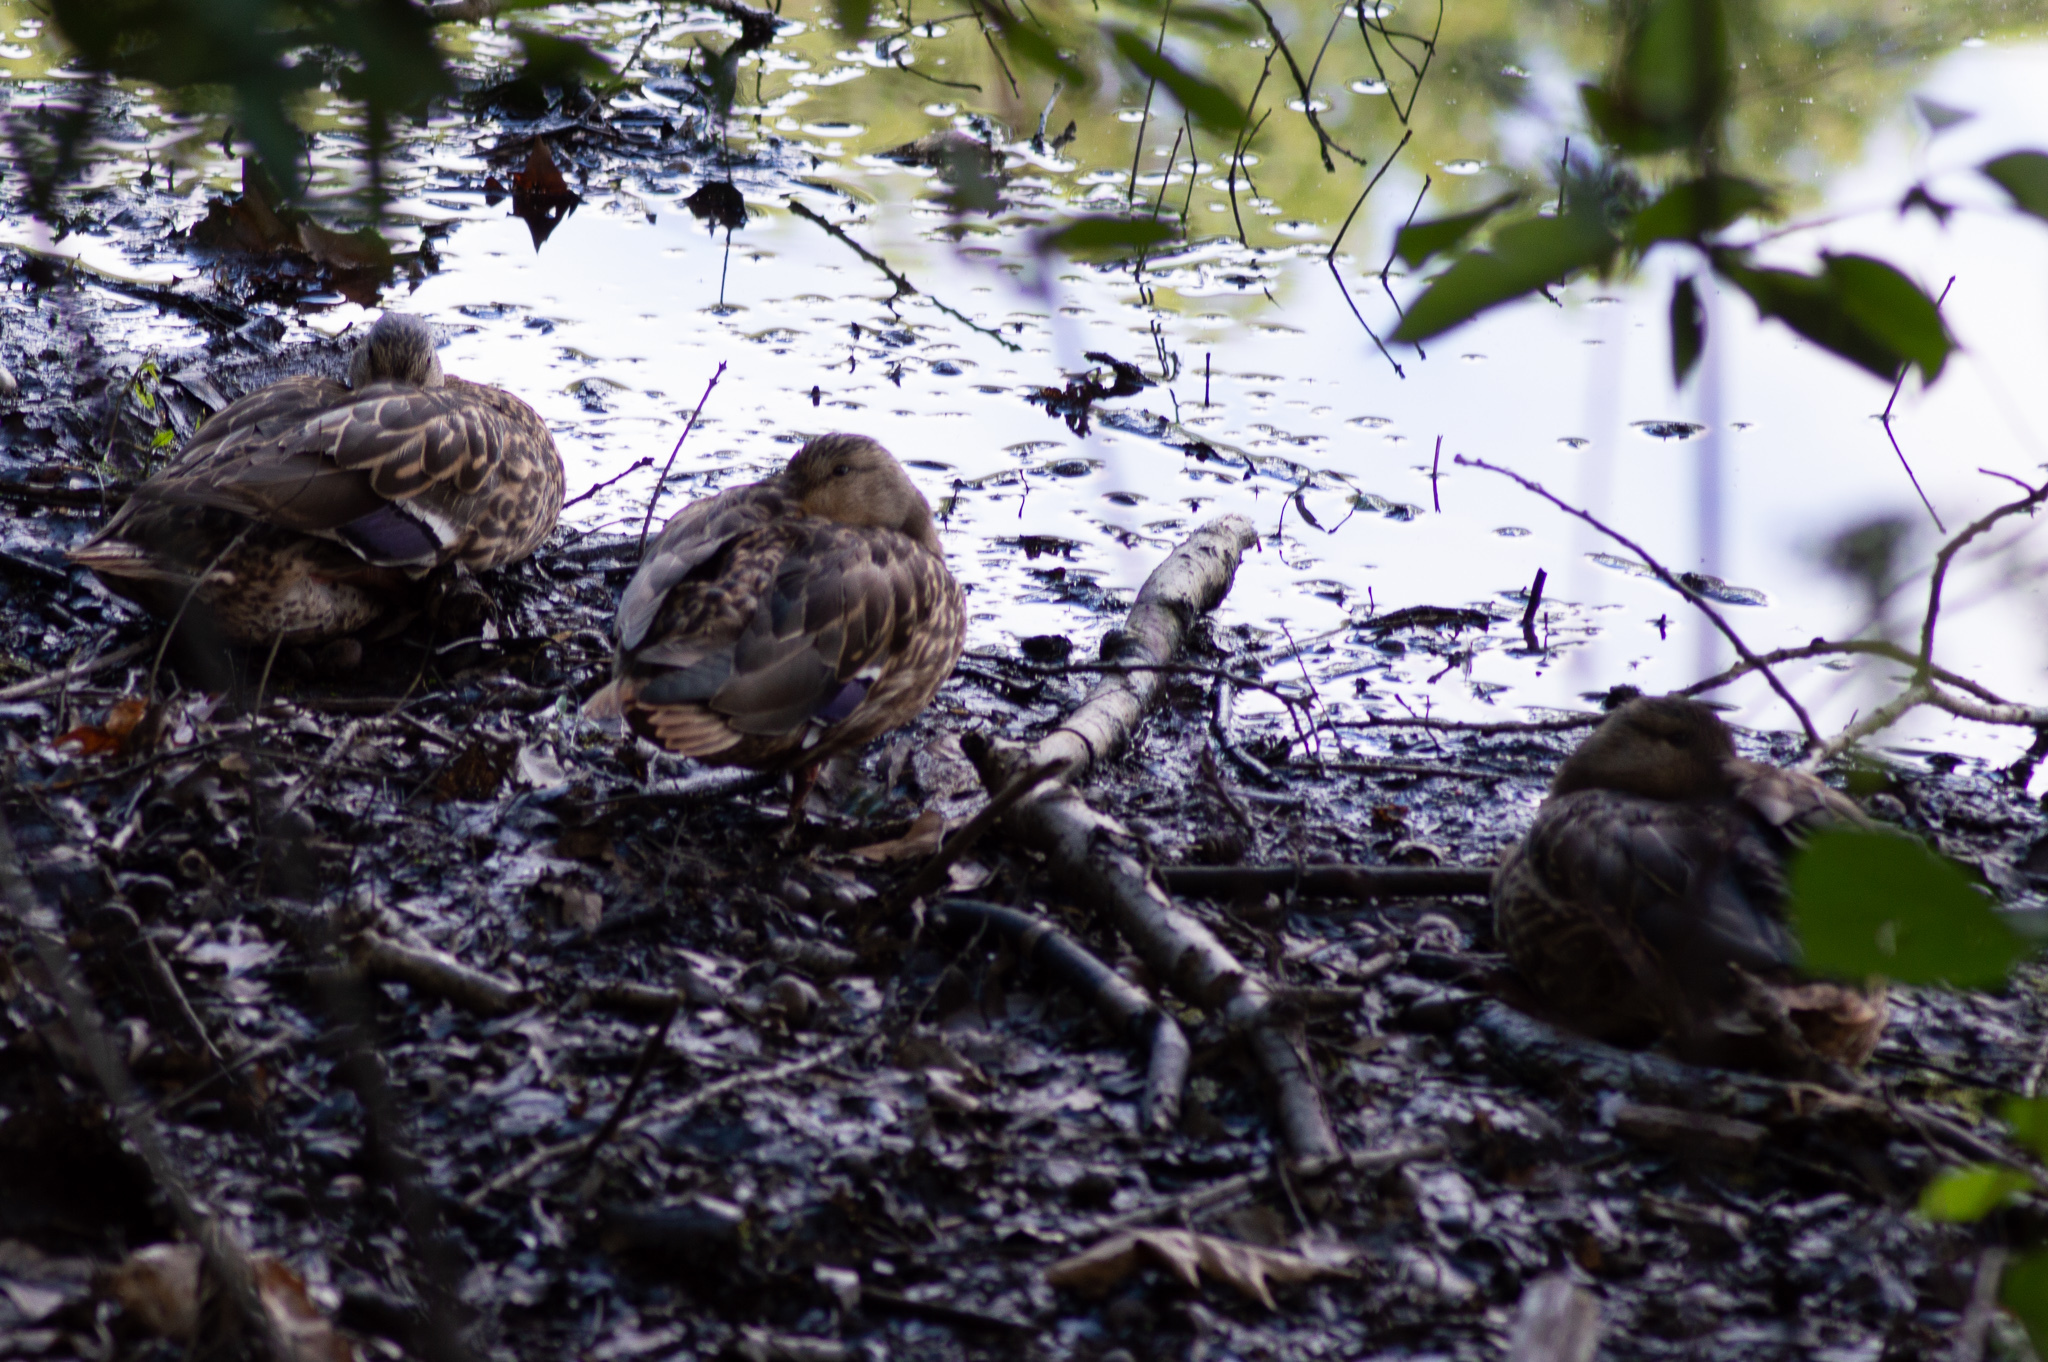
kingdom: Animalia
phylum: Chordata
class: Aves
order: Anseriformes
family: Anatidae
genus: Anas
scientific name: Anas platyrhynchos
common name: Mallard
